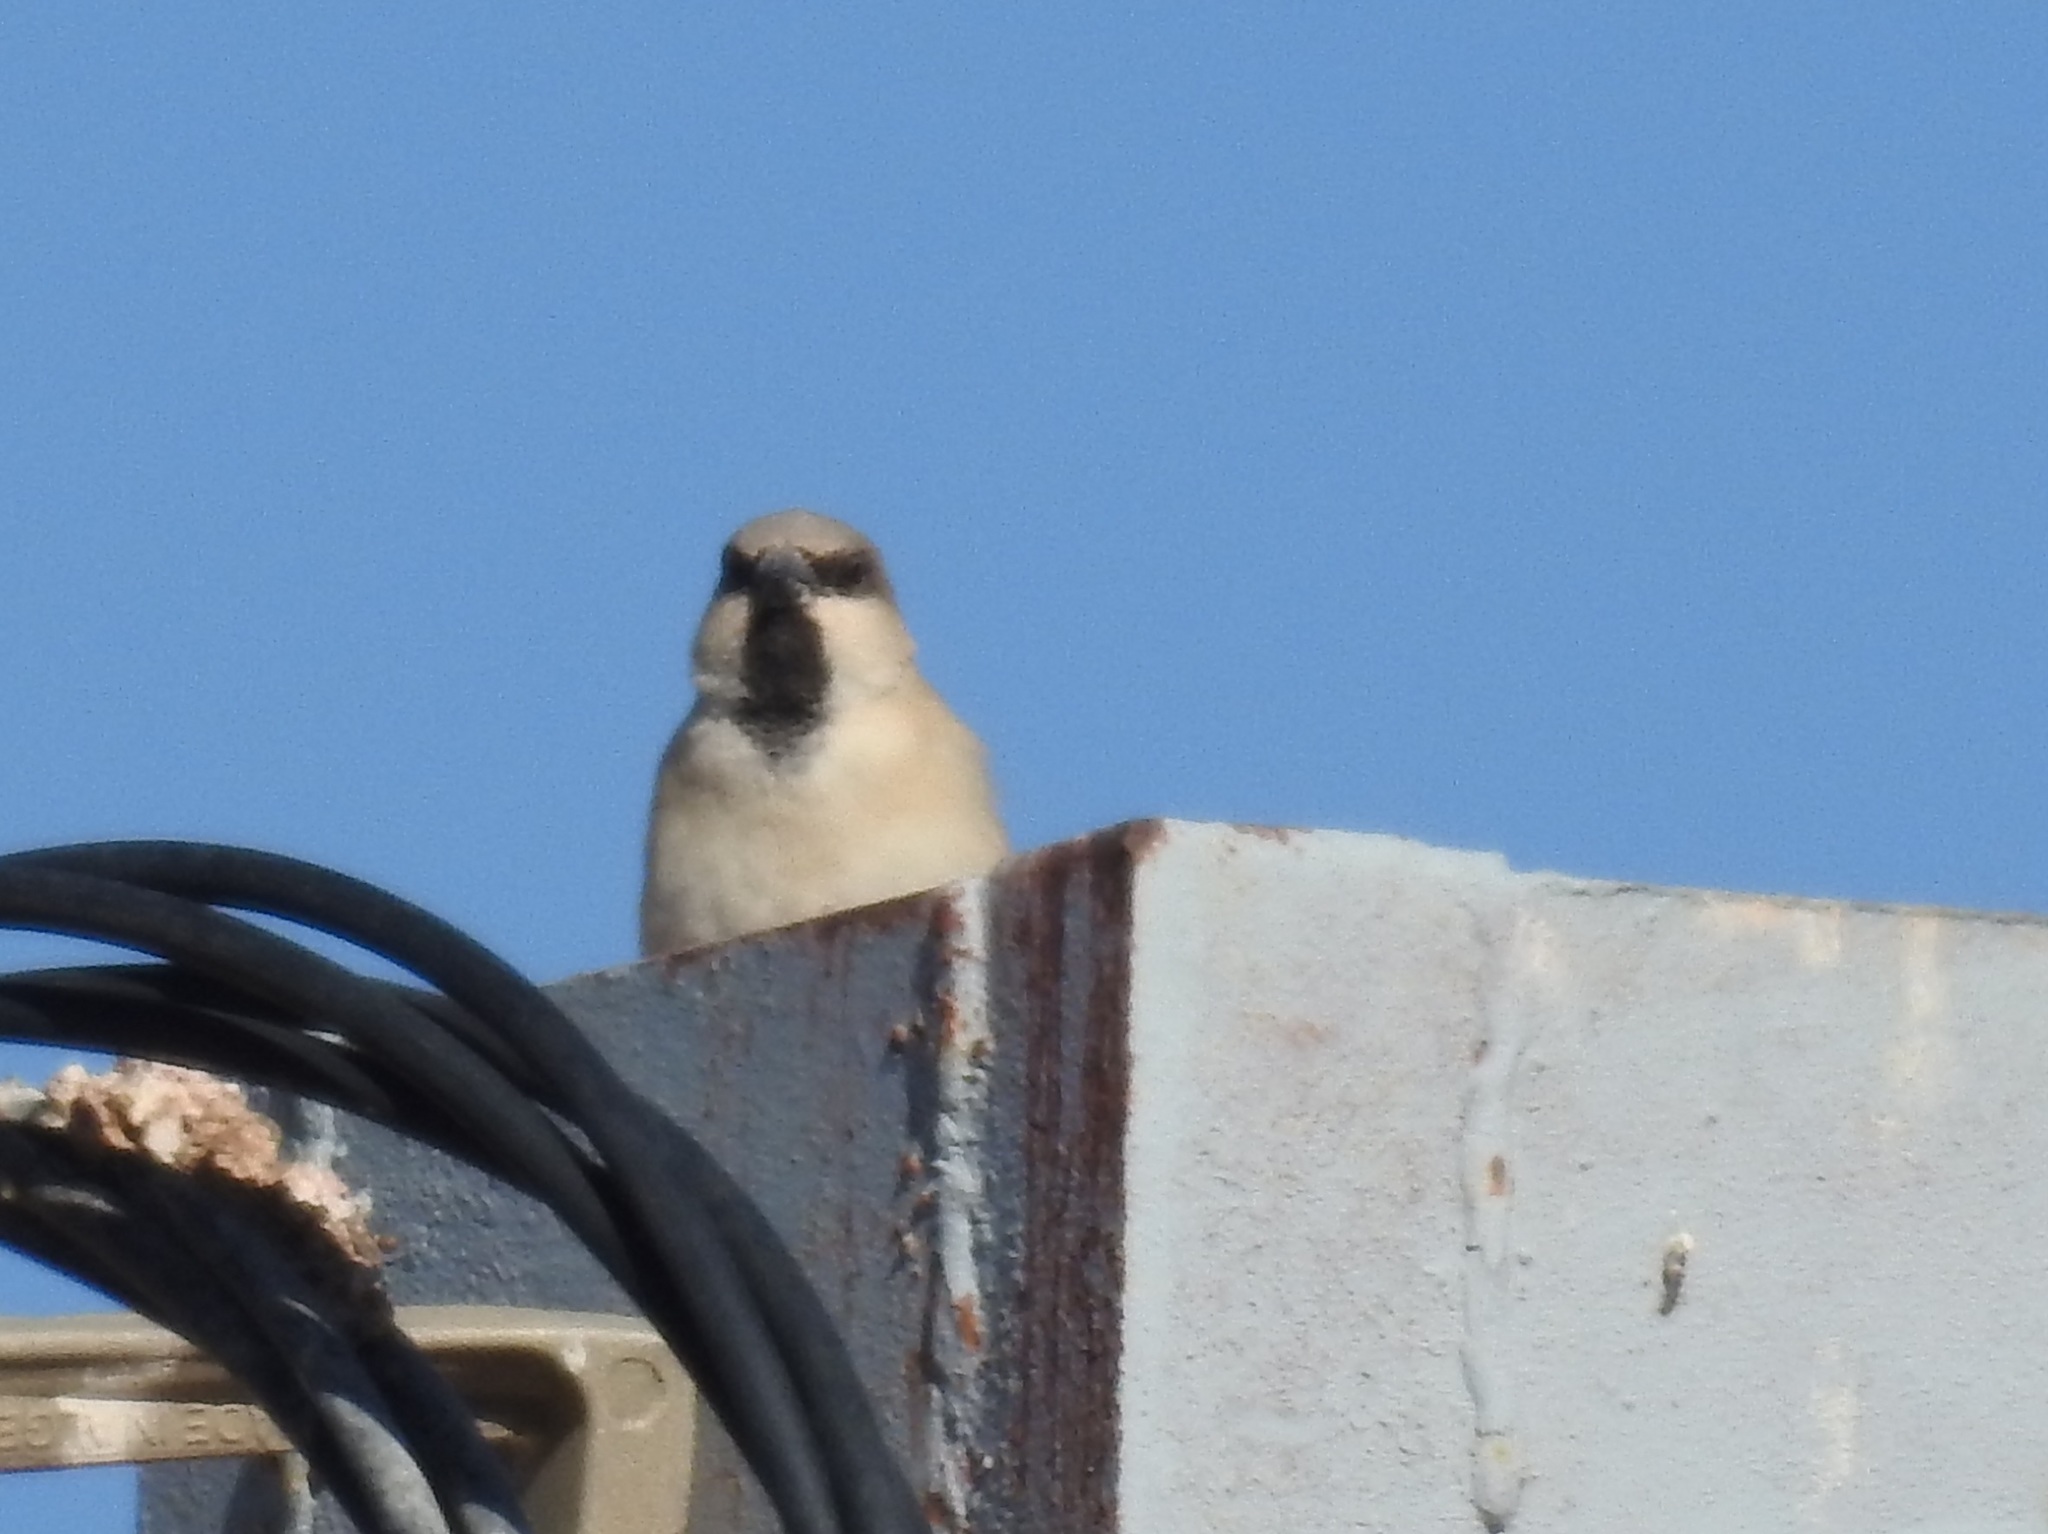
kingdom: Animalia
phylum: Chordata
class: Aves
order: Passeriformes
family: Passeridae
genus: Passer
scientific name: Passer simplex
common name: Desert sparrow
